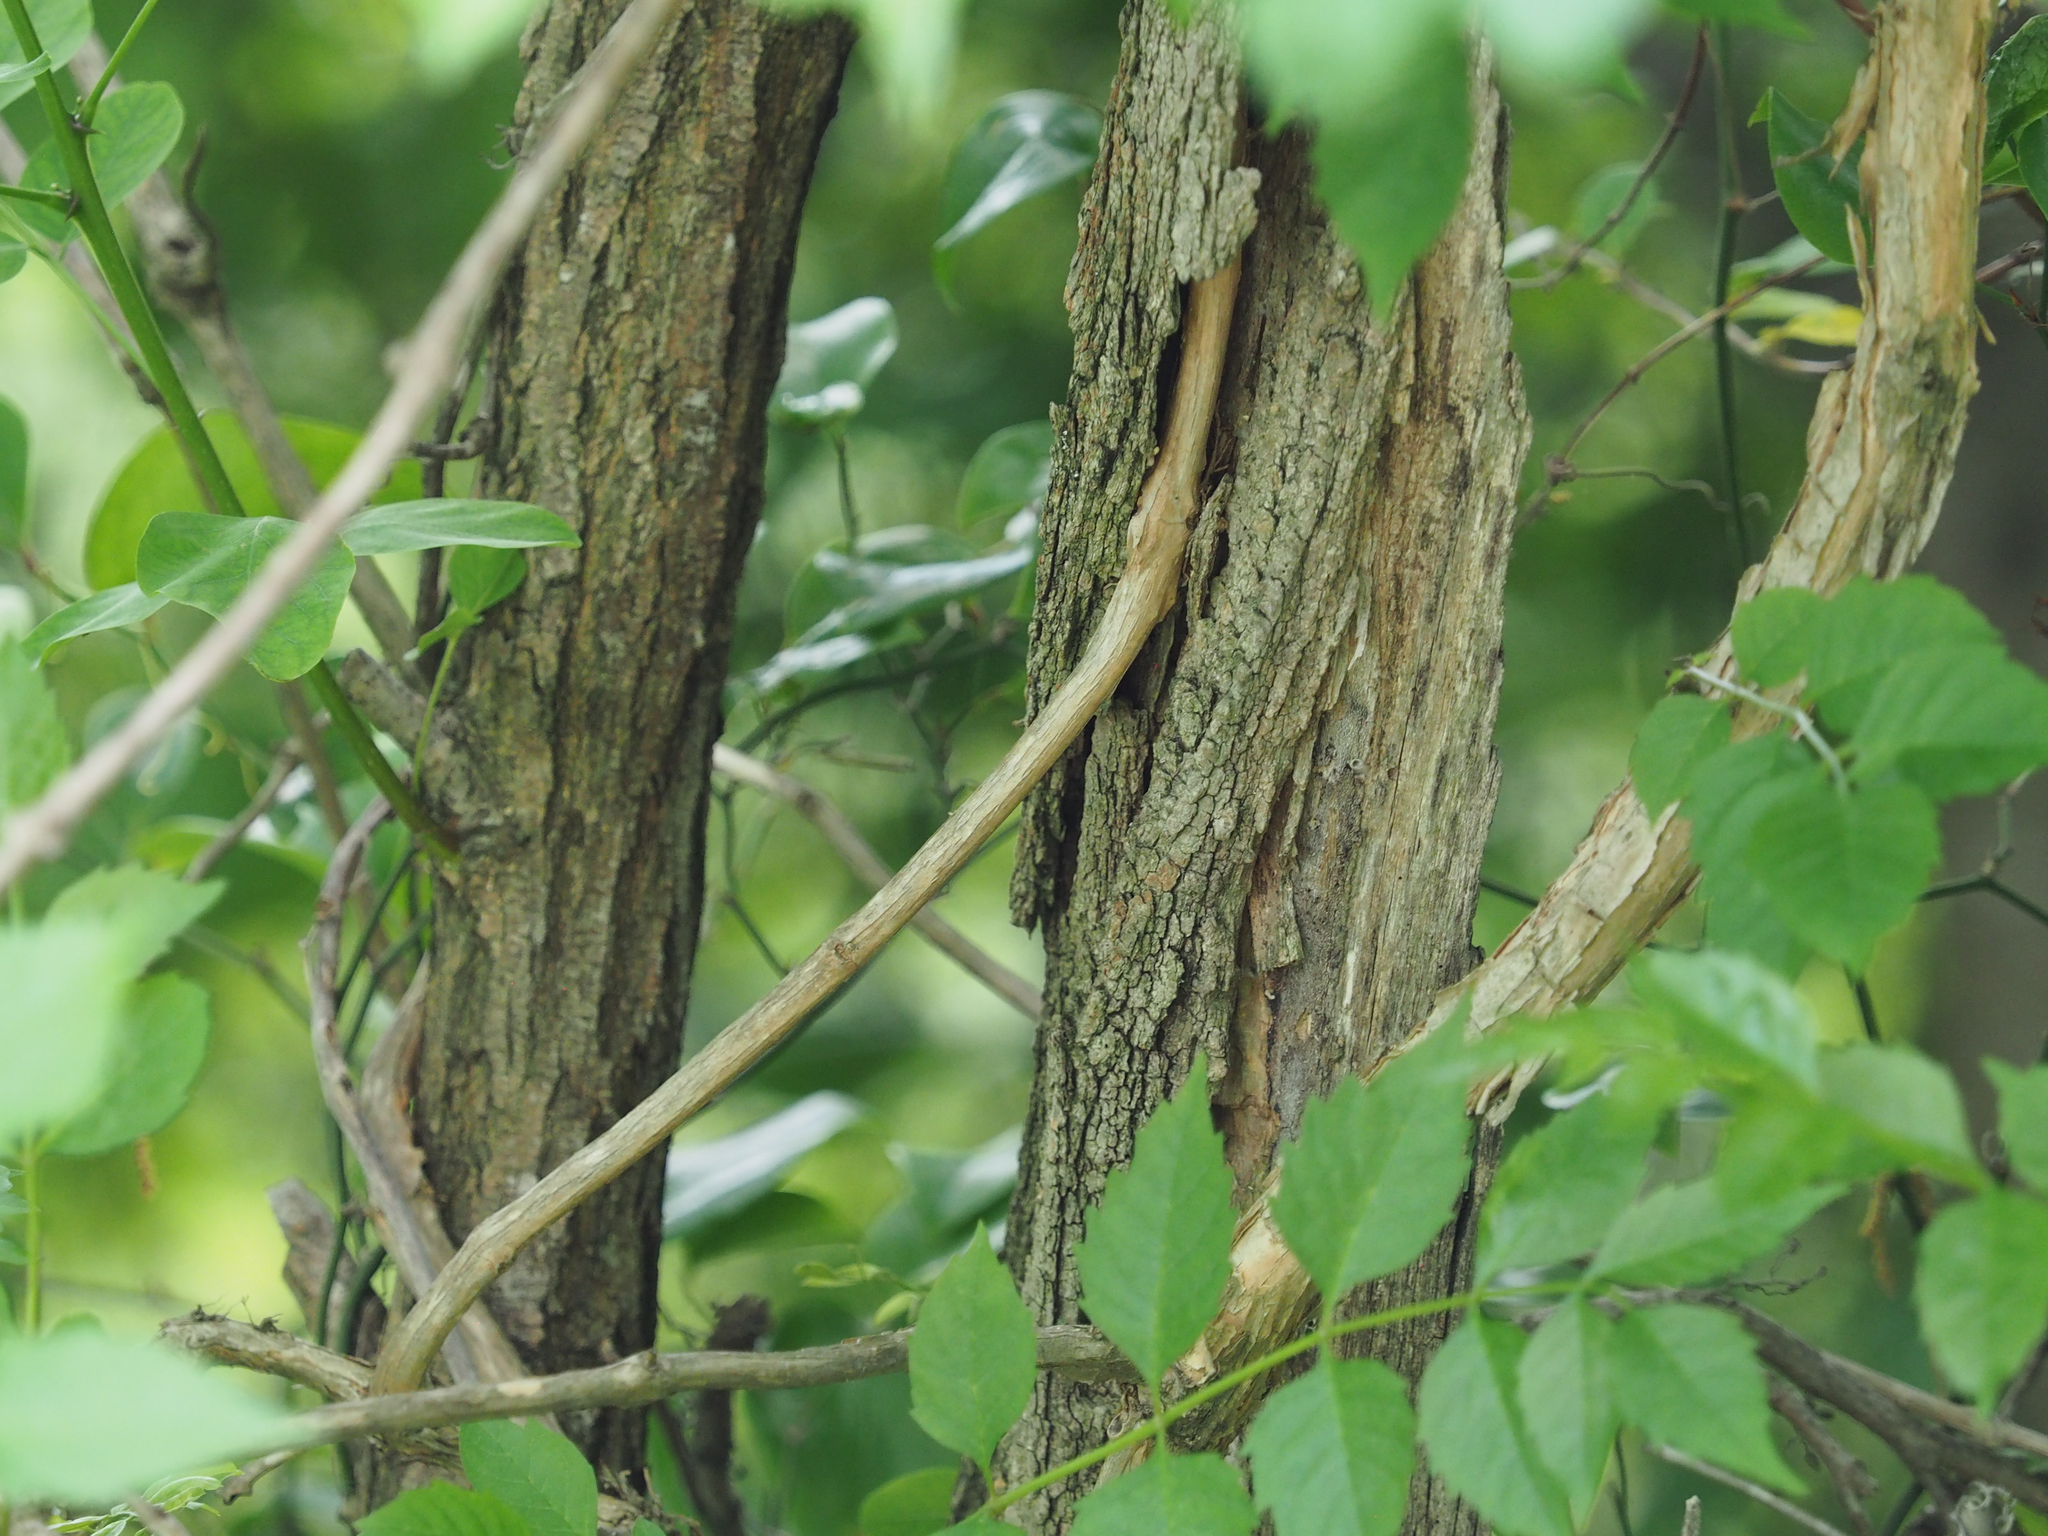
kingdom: Plantae
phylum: Tracheophyta
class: Magnoliopsida
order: Lamiales
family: Bignoniaceae
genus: Campsis
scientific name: Campsis radicans
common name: Trumpet-creeper
